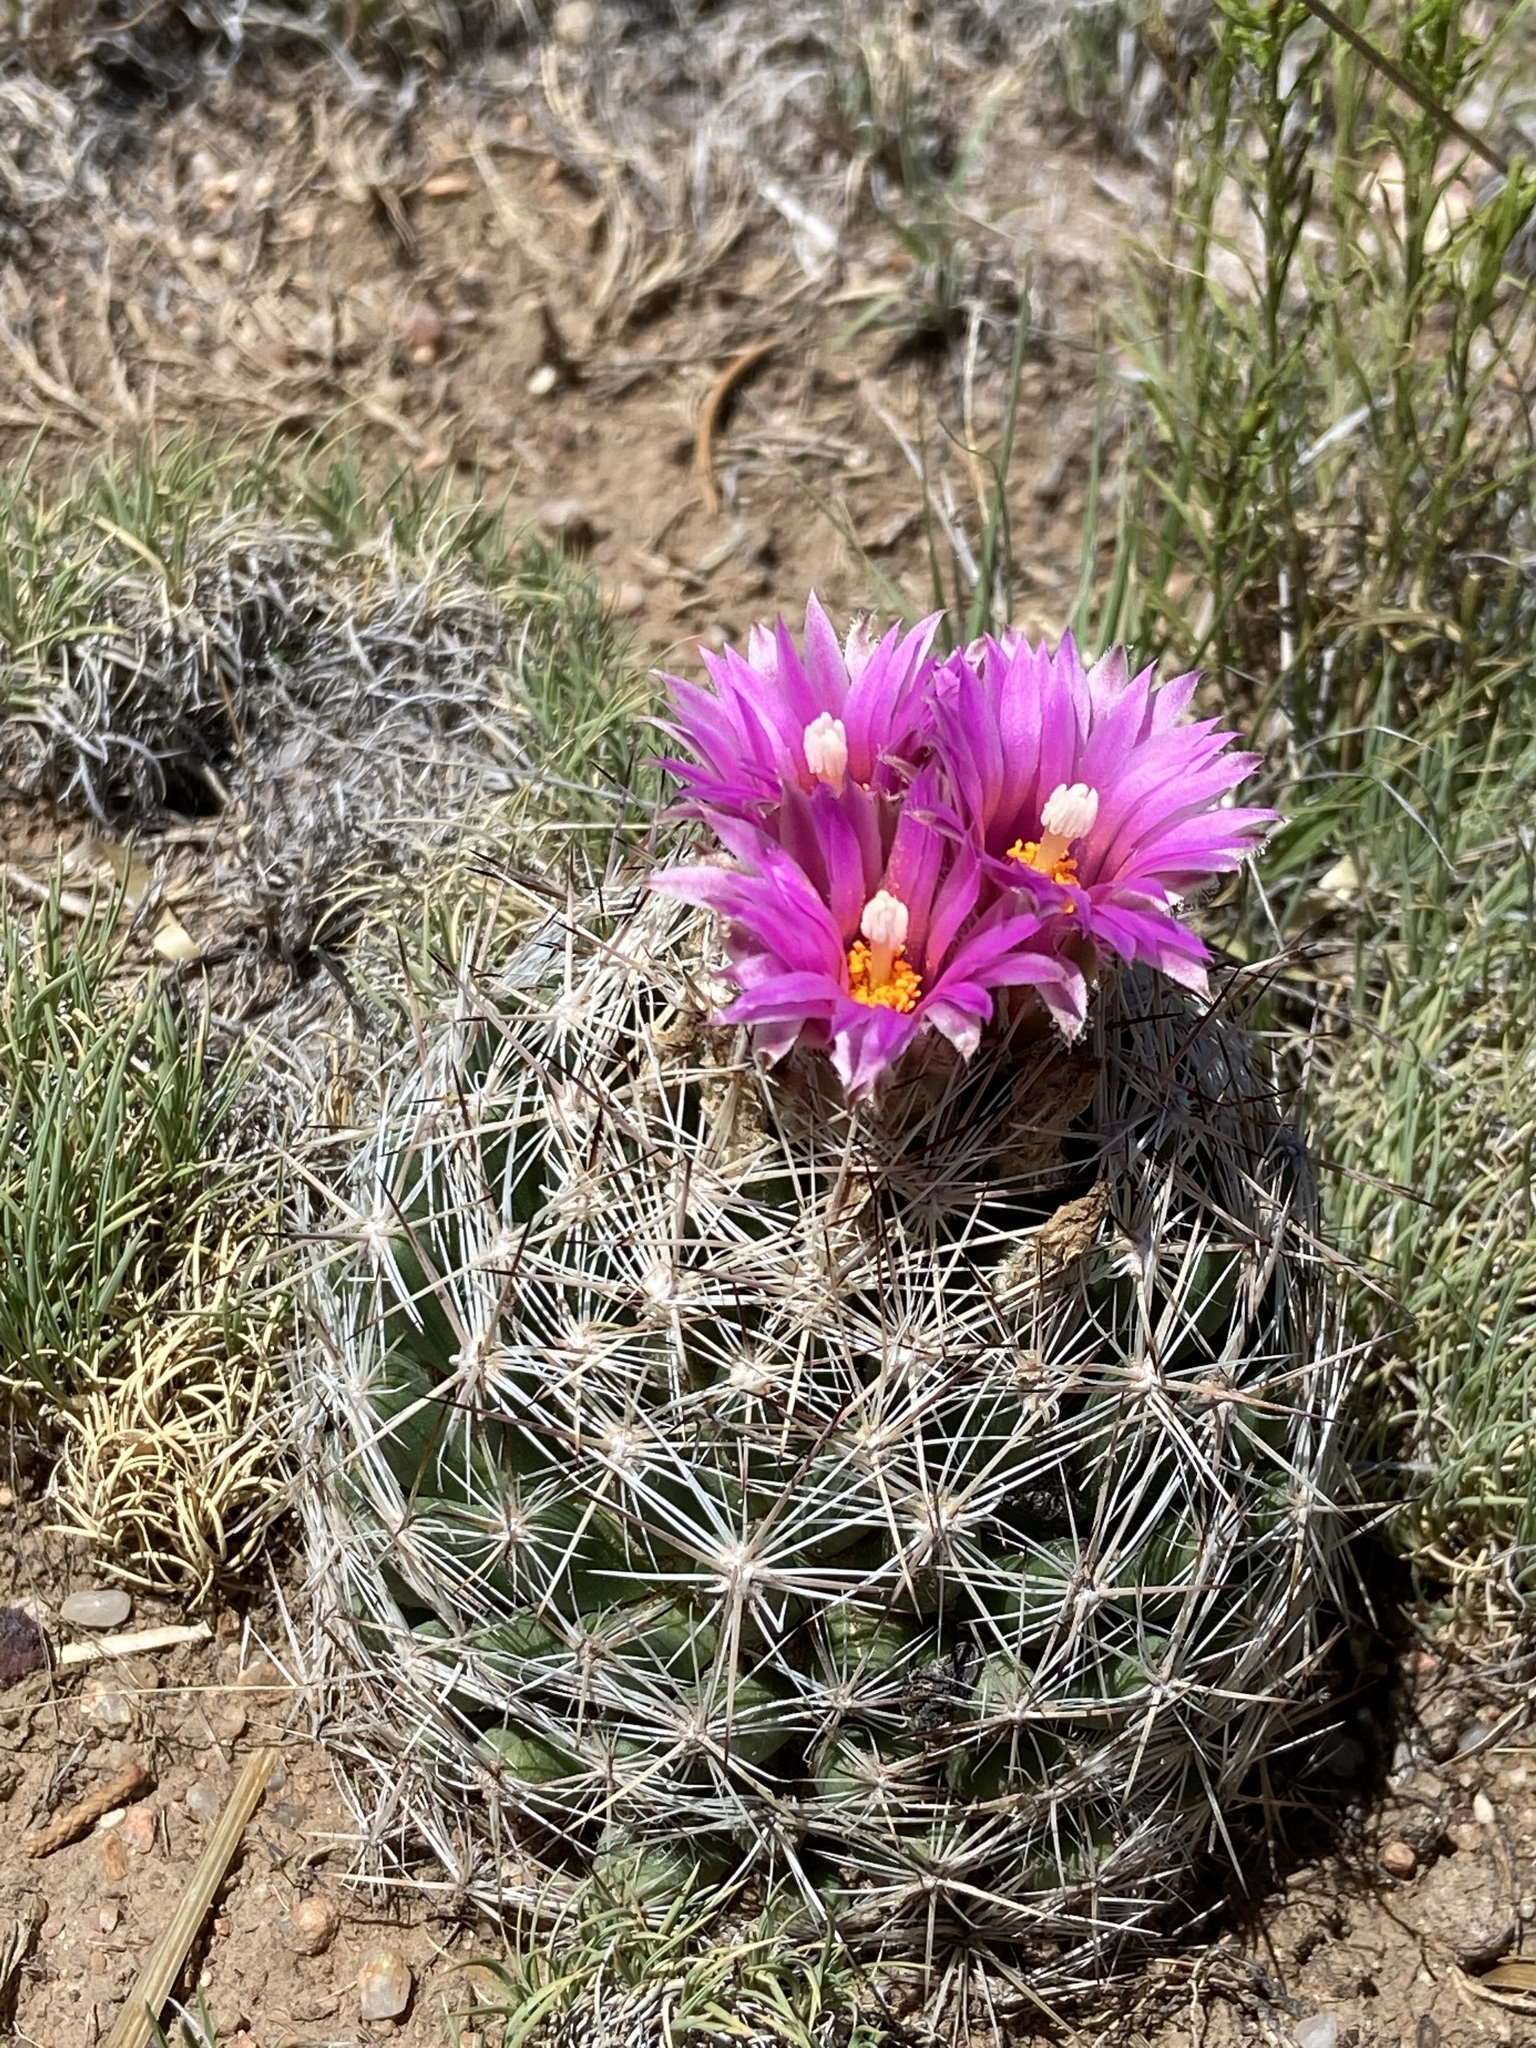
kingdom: Plantae
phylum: Tracheophyta
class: Magnoliopsida
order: Caryophyllales
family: Cactaceae
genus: Pelecyphora
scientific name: Pelecyphora vivipara
